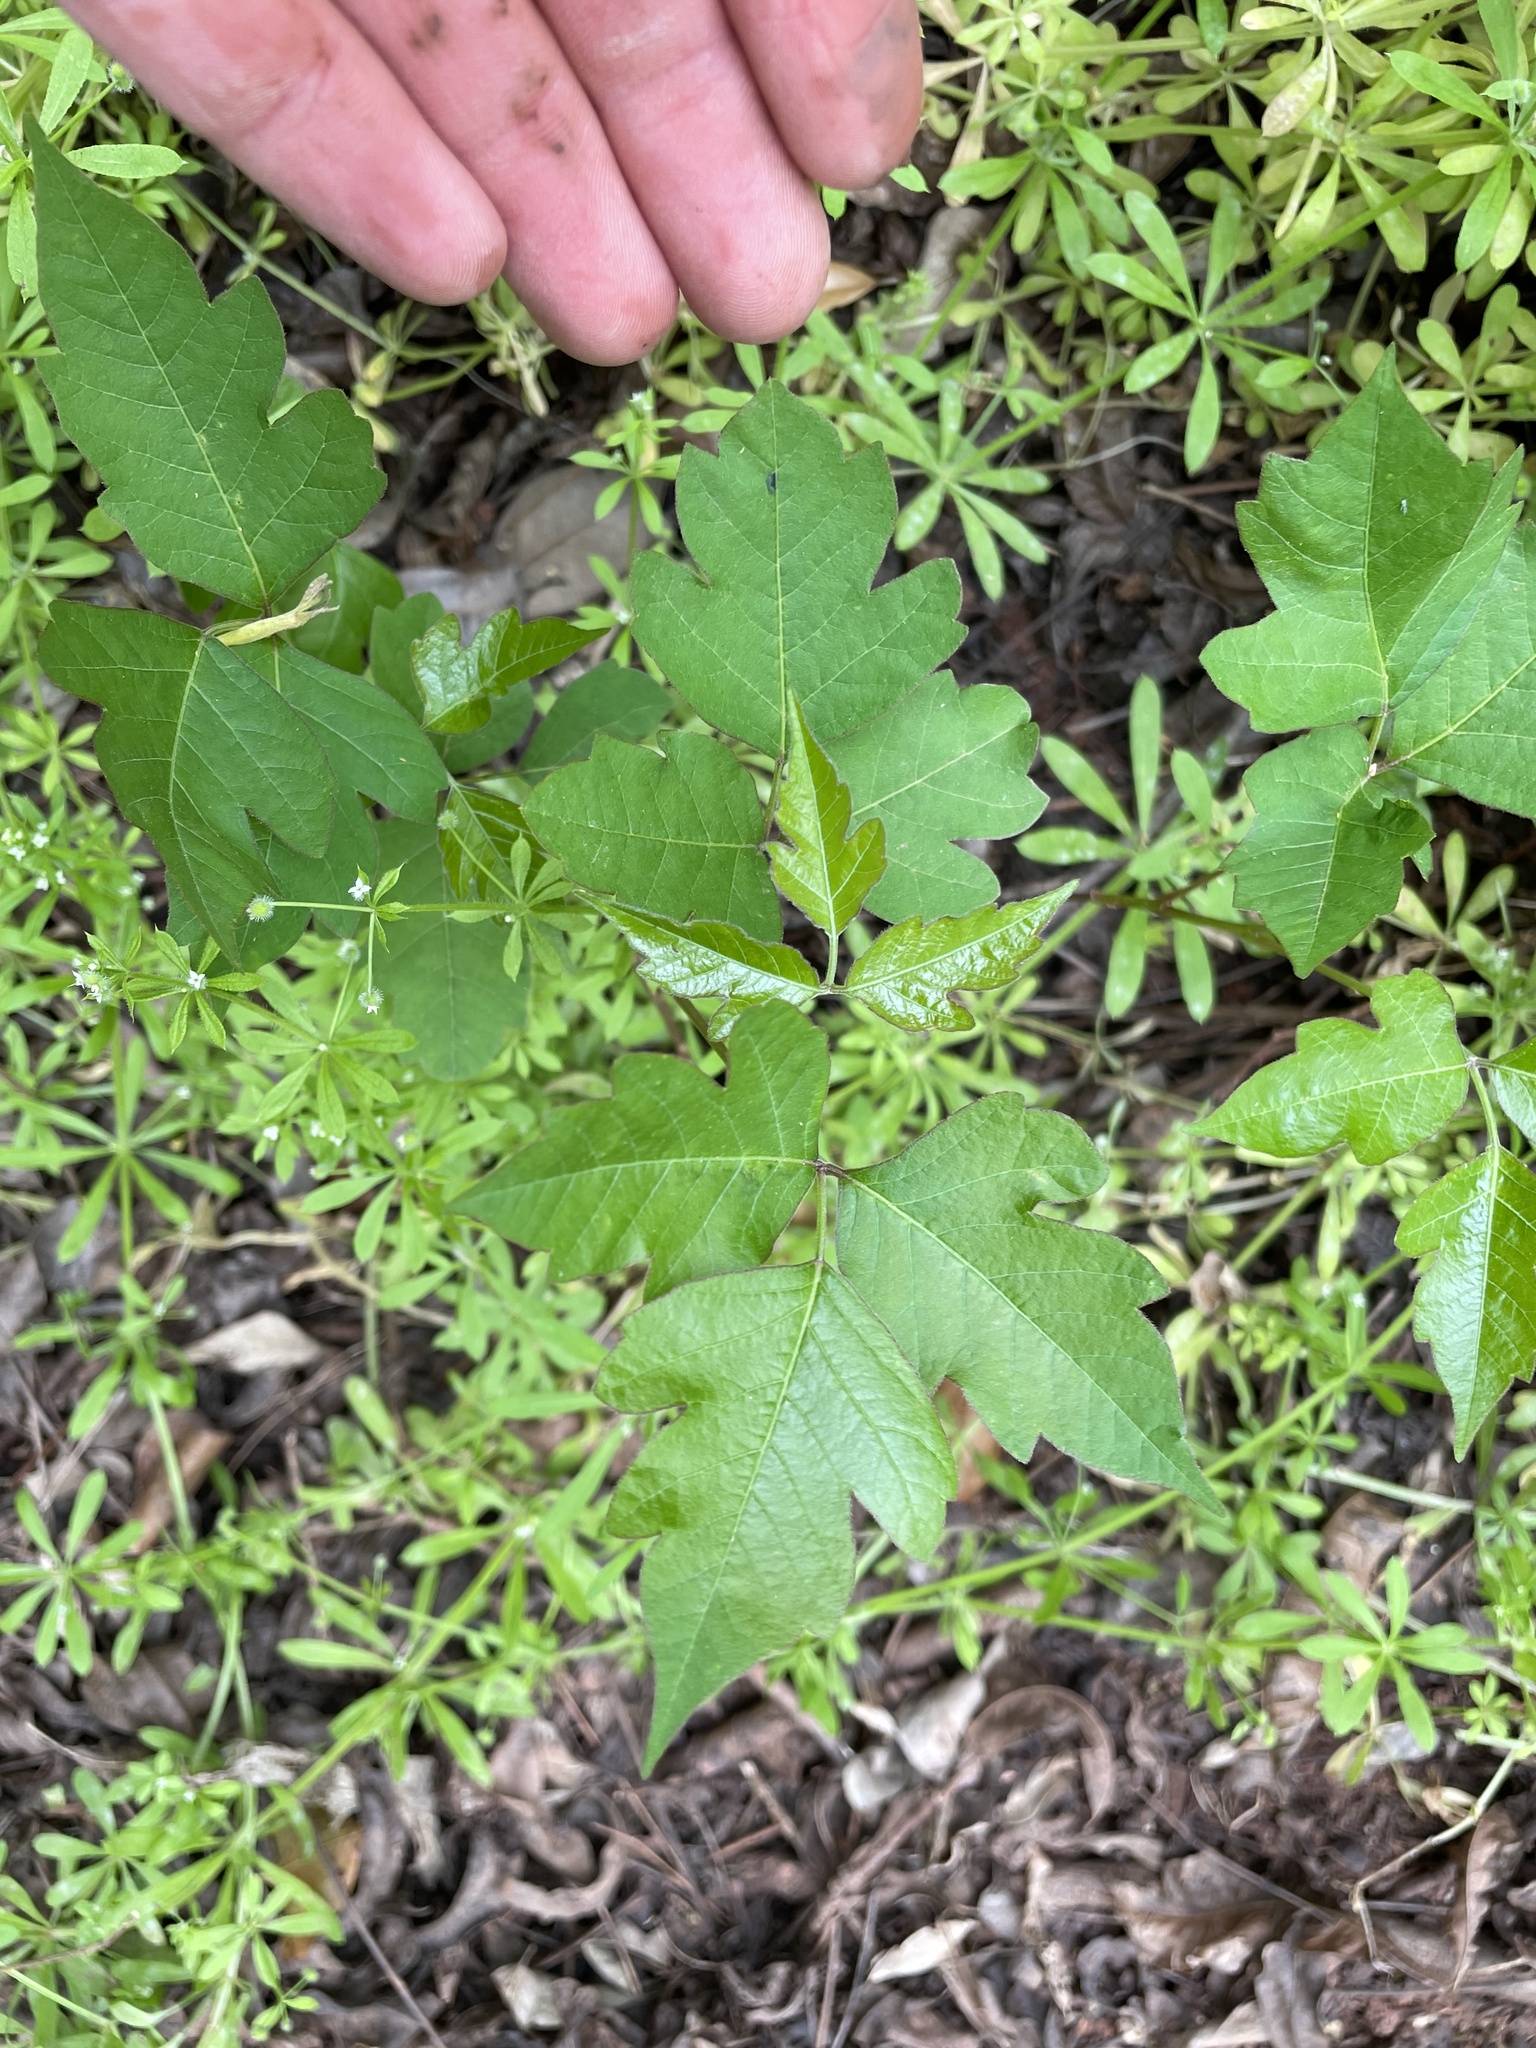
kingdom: Plantae
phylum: Tracheophyta
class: Magnoliopsida
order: Sapindales
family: Anacardiaceae
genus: Toxicodendron
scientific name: Toxicodendron radicans
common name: Poison ivy
